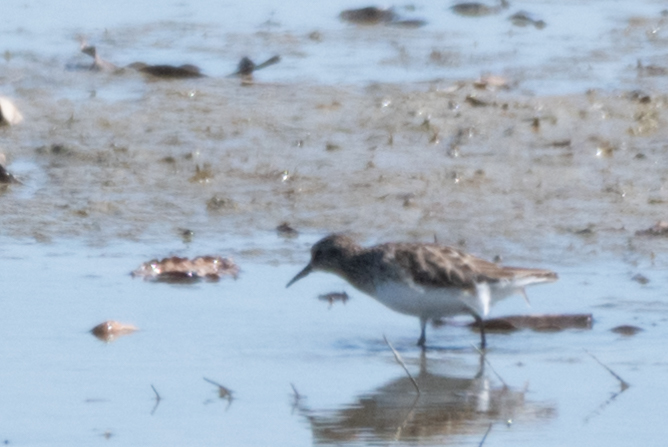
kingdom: Animalia
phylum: Chordata
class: Aves
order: Charadriiformes
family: Scolopacidae
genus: Calidris
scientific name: Calidris minutilla
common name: Least sandpiper
